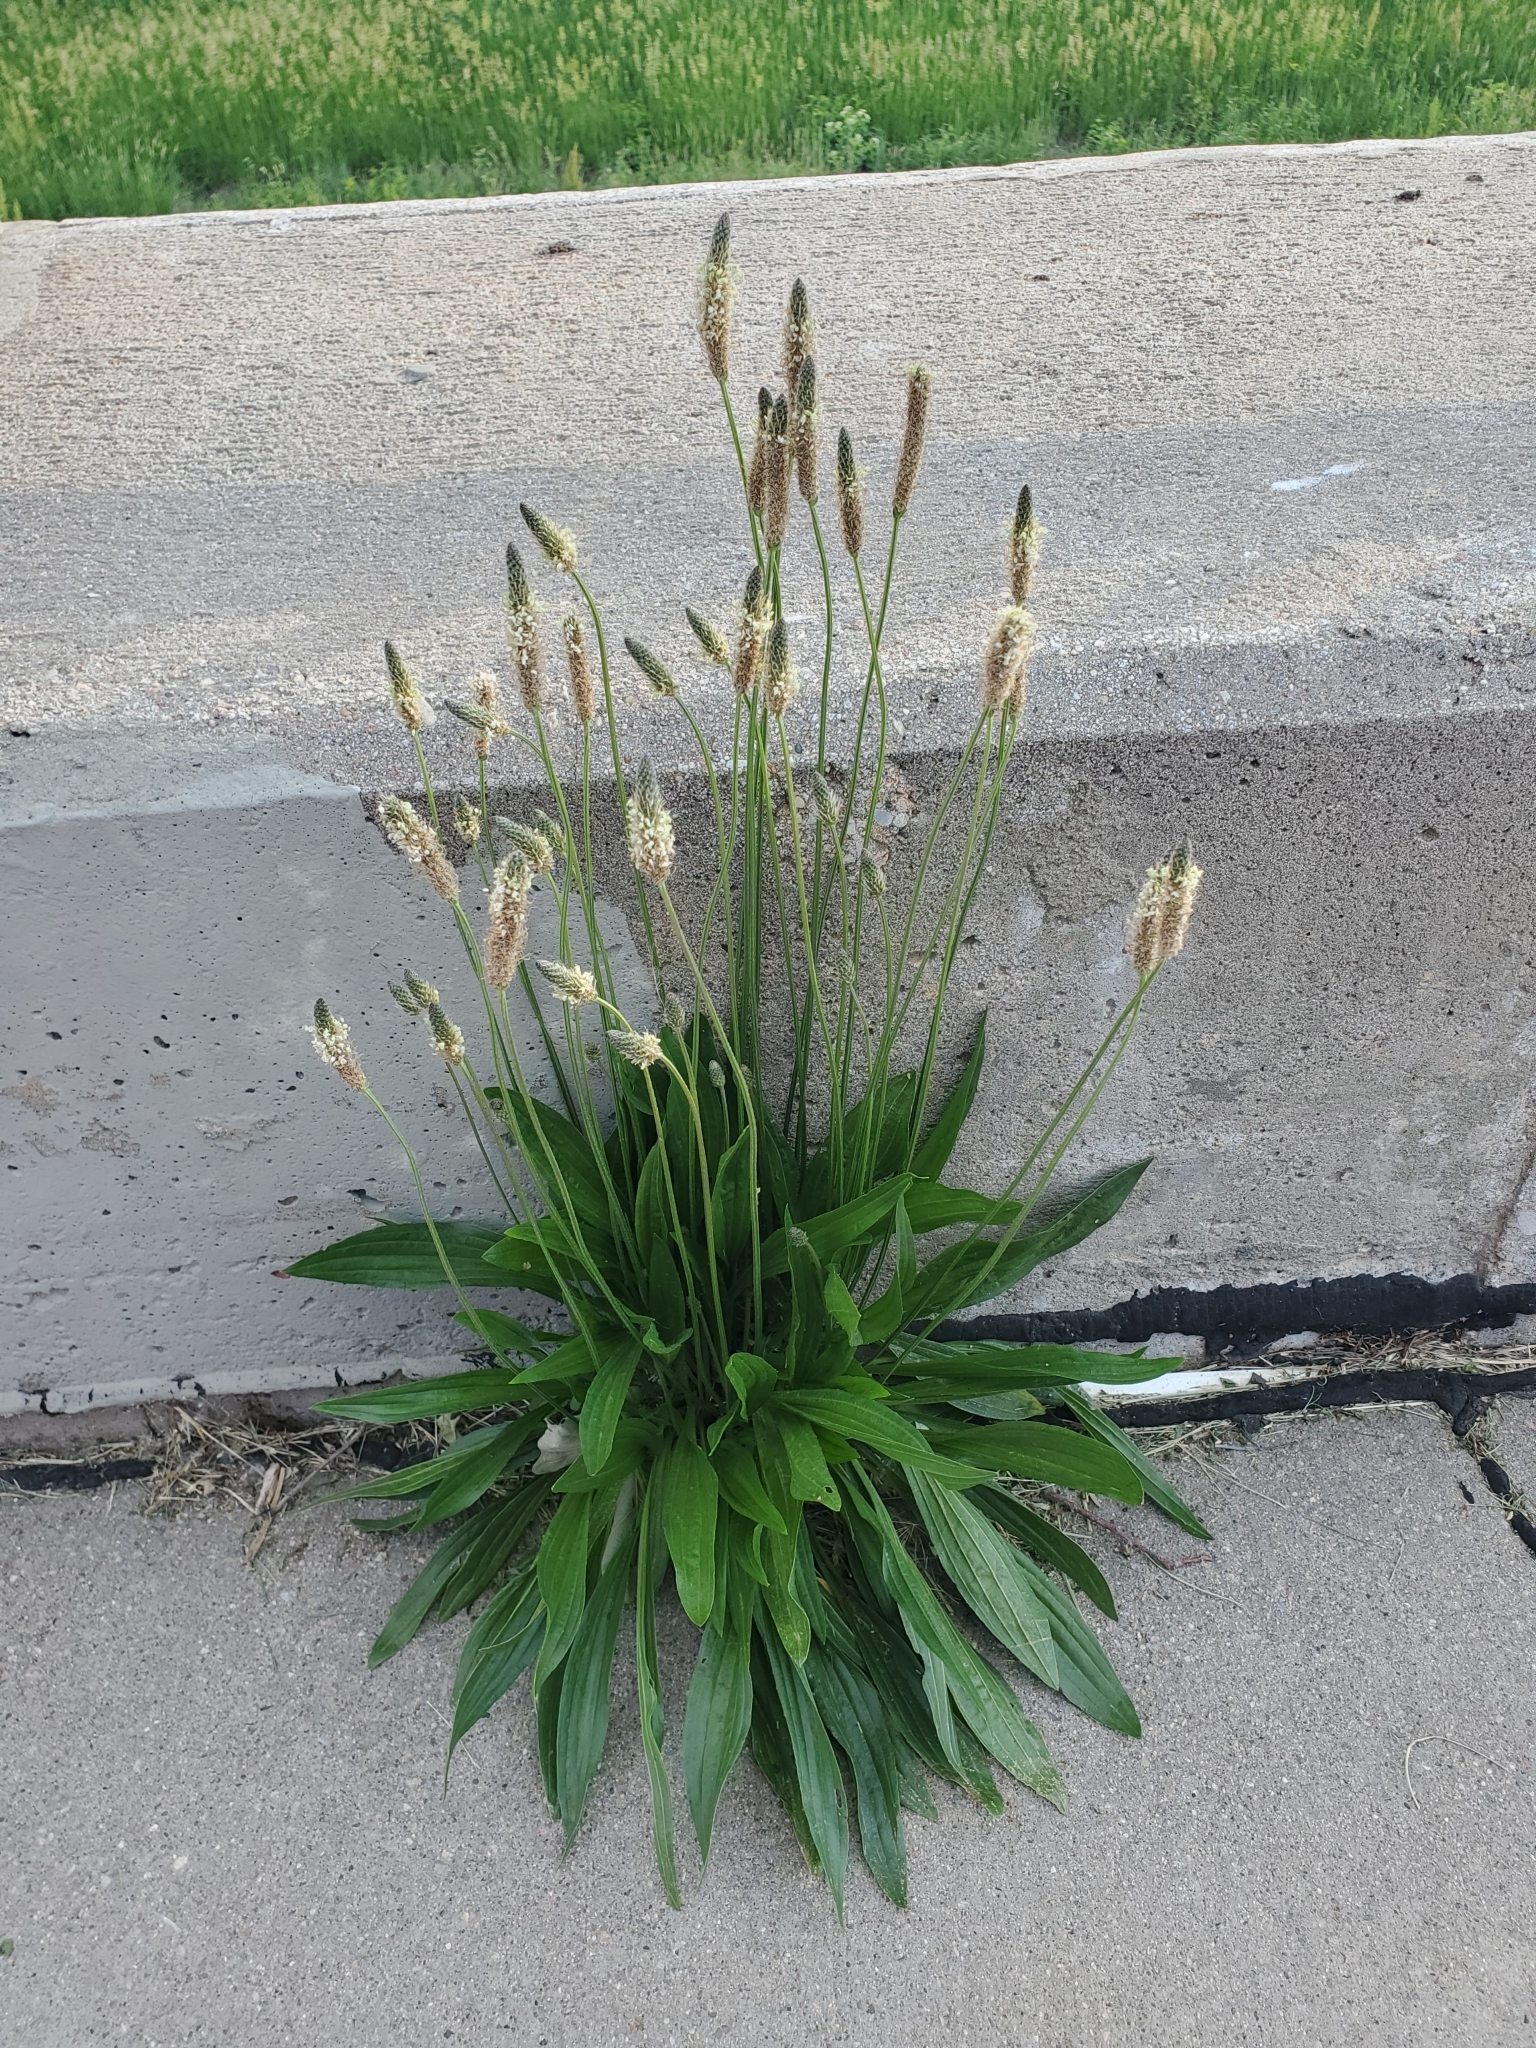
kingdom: Plantae
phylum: Tracheophyta
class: Magnoliopsida
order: Lamiales
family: Plantaginaceae
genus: Plantago
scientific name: Plantago lanceolata
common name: Ribwort plantain
